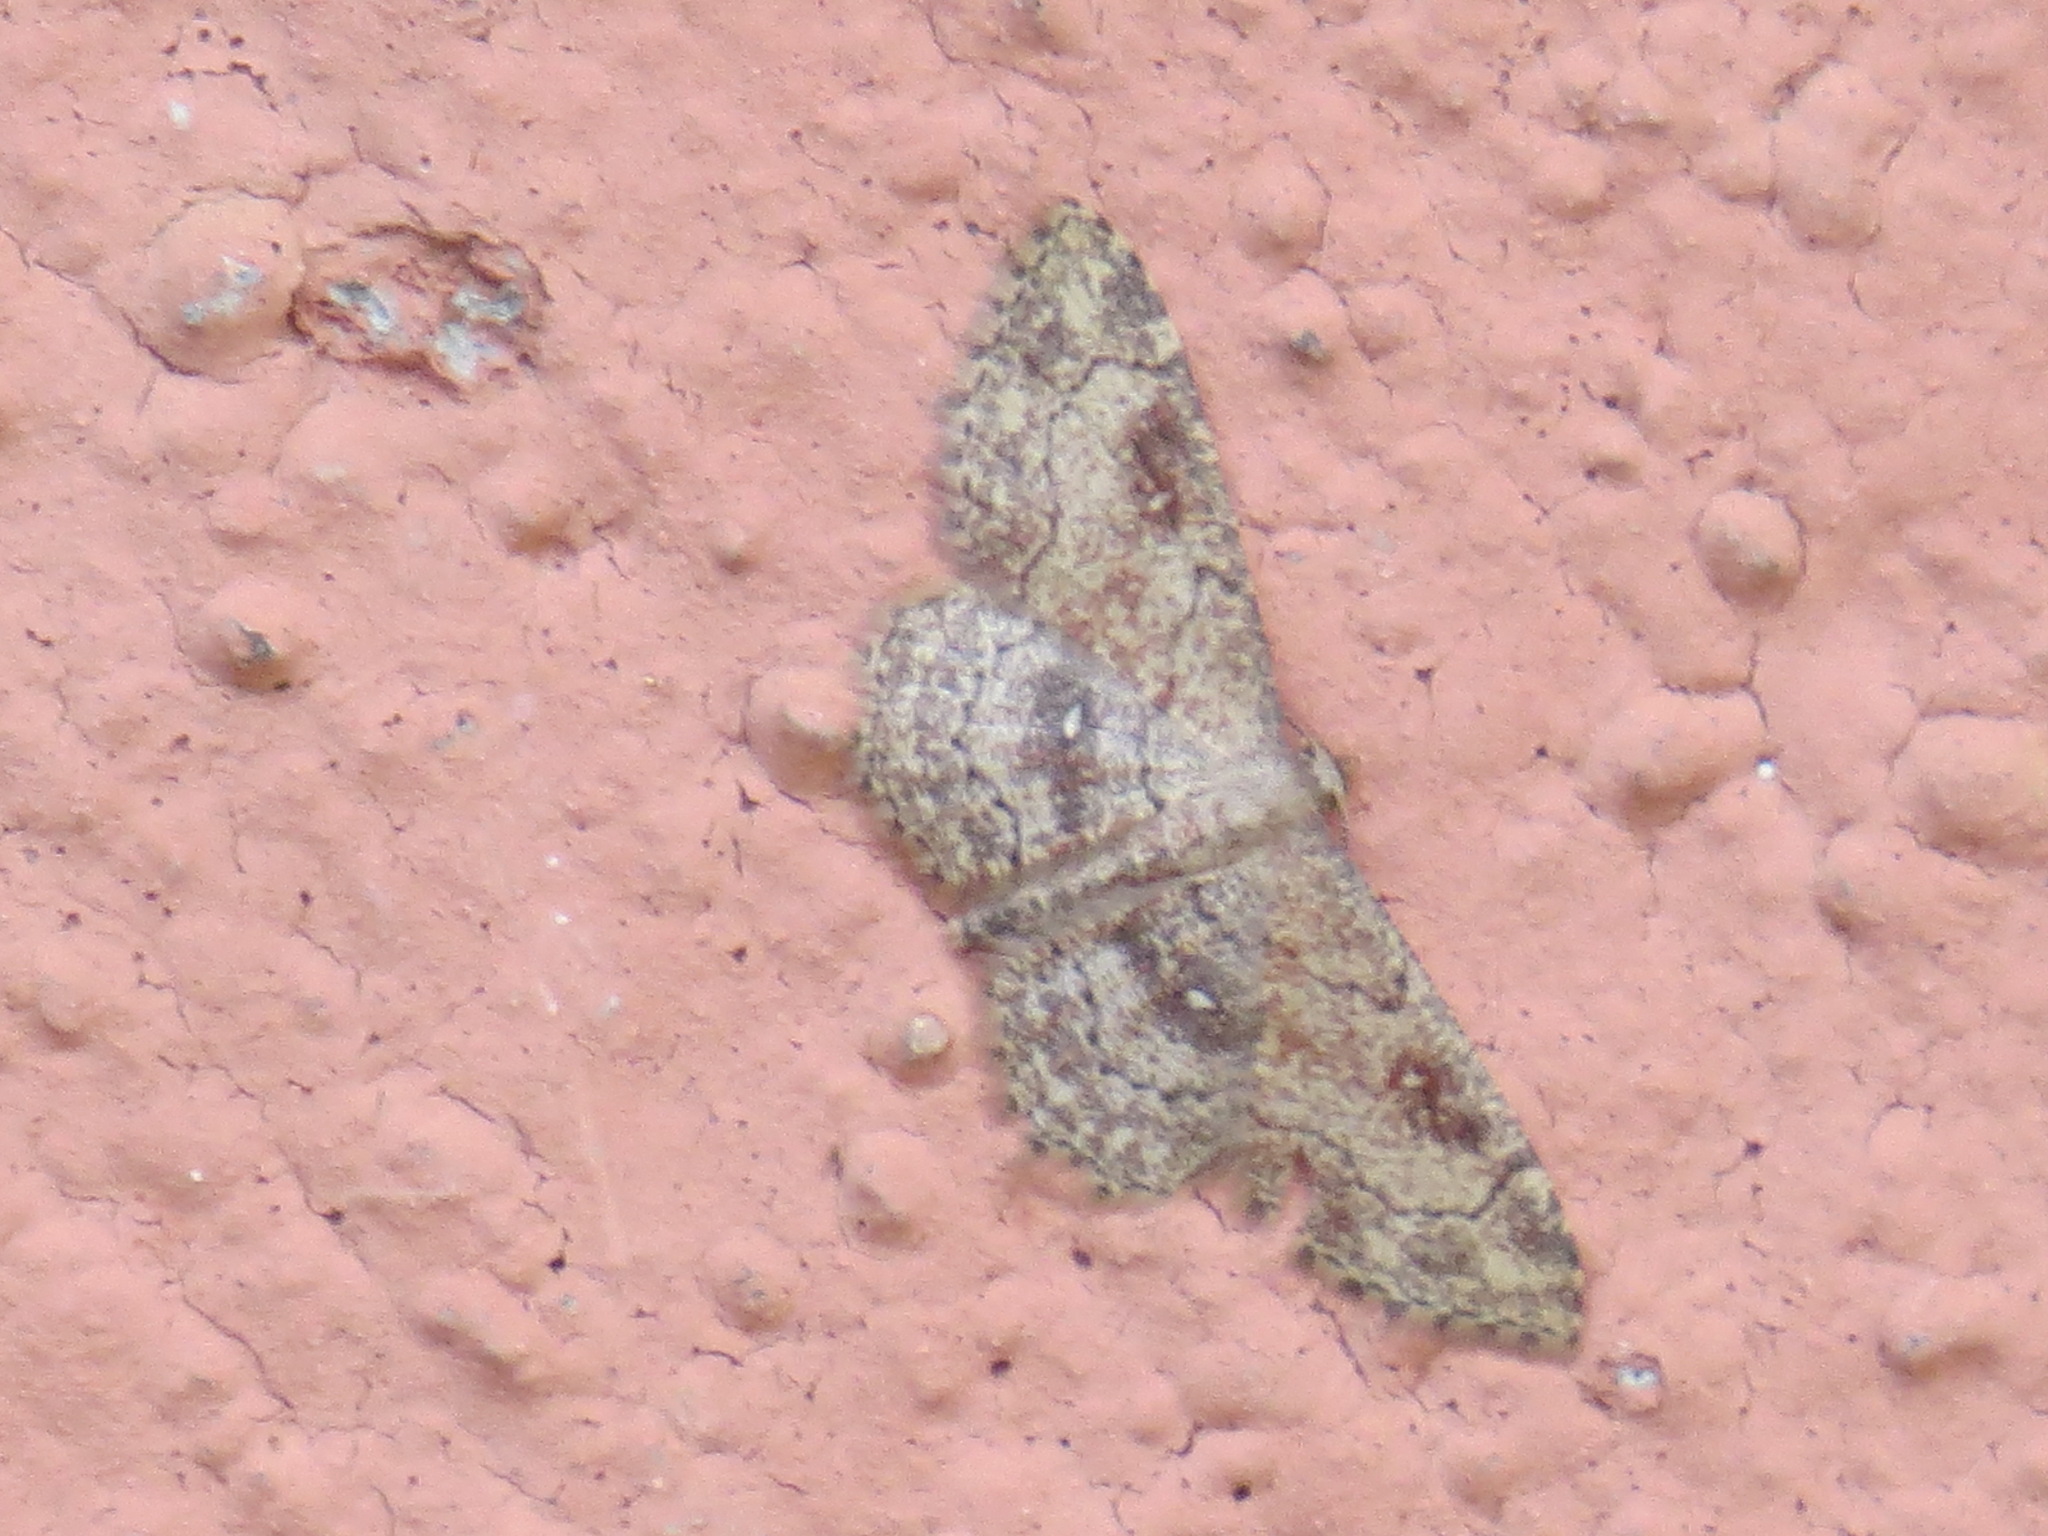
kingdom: Animalia
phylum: Arthropoda
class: Insecta
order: Lepidoptera
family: Geometridae
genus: Cyclophora
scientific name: Cyclophora nanaria
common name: Cankerworm
